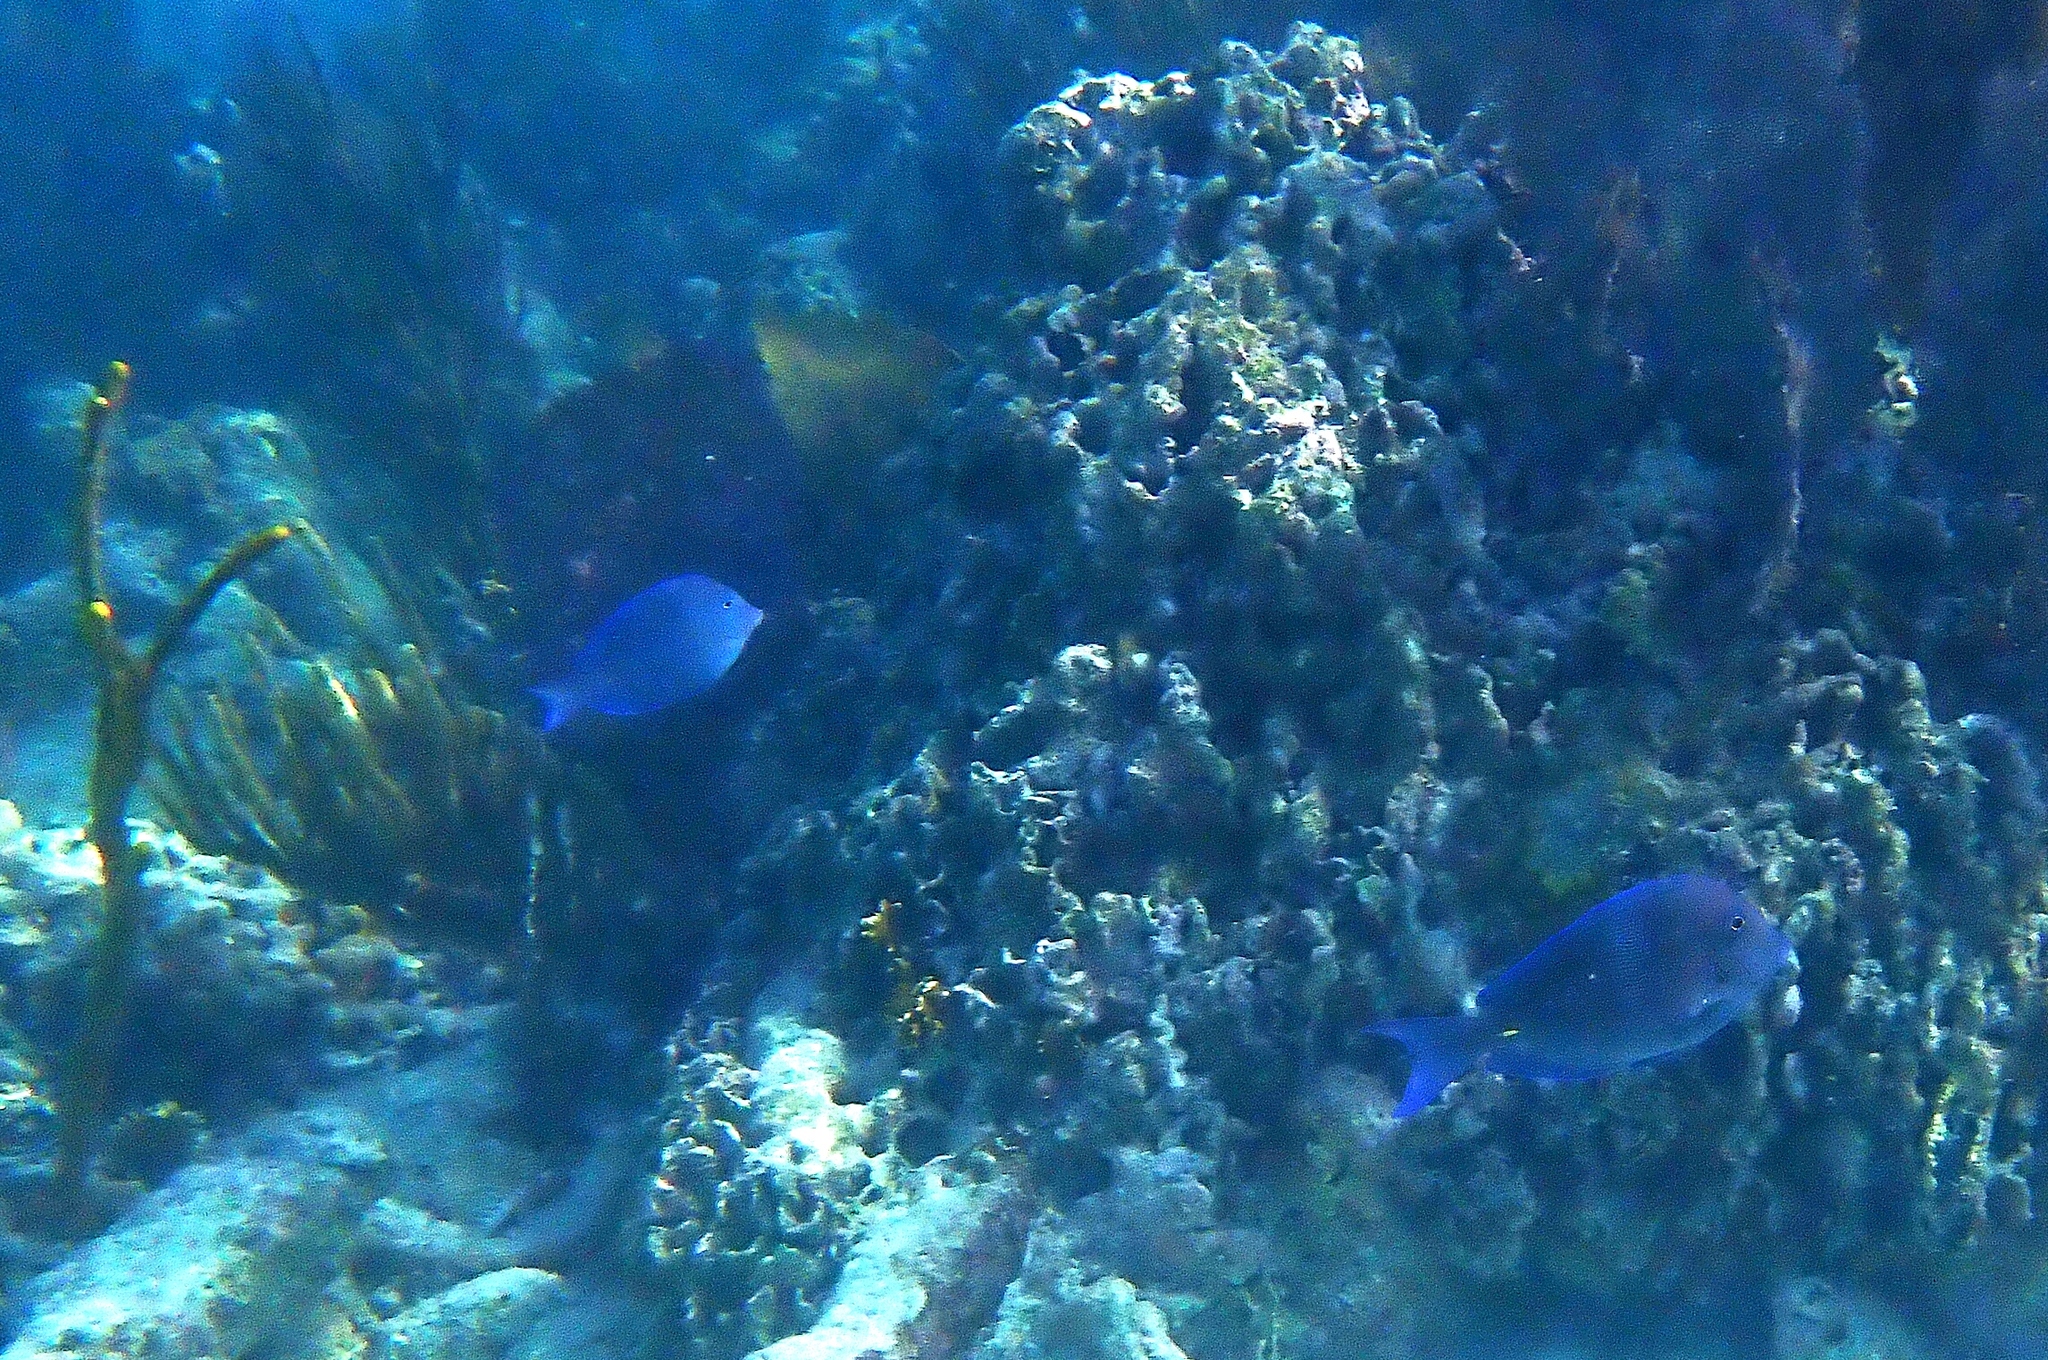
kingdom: Animalia
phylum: Chordata
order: Perciformes
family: Acanthuridae
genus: Acanthurus
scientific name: Acanthurus coeruleus
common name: Blue tang
